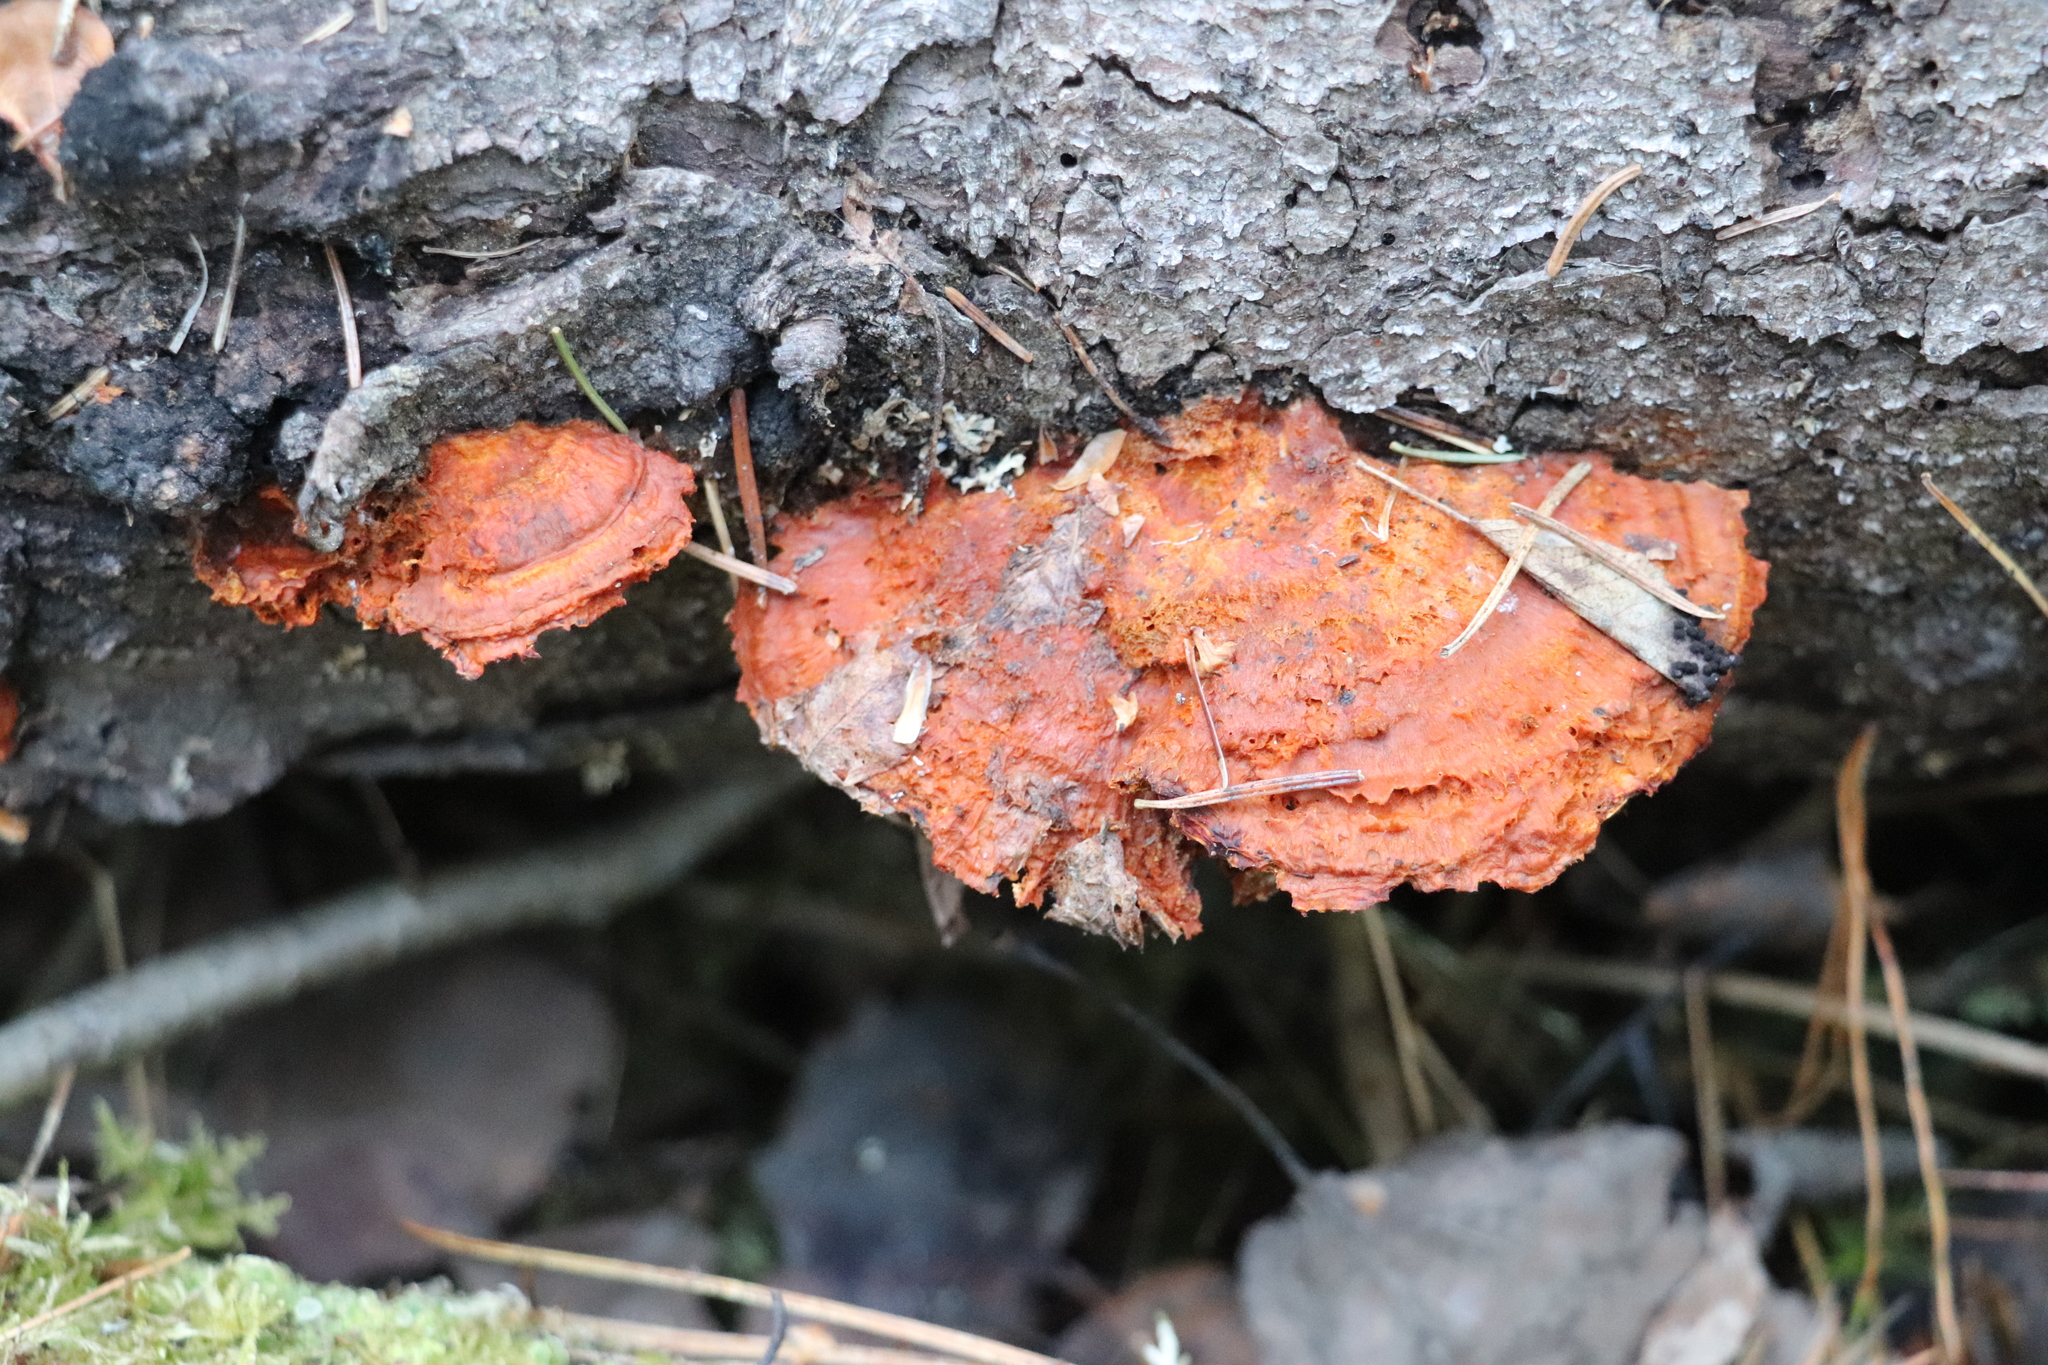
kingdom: Fungi
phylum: Basidiomycota
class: Agaricomycetes
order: Polyporales
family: Pycnoporellaceae
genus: Pycnoporellus
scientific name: Pycnoporellus fulgens
